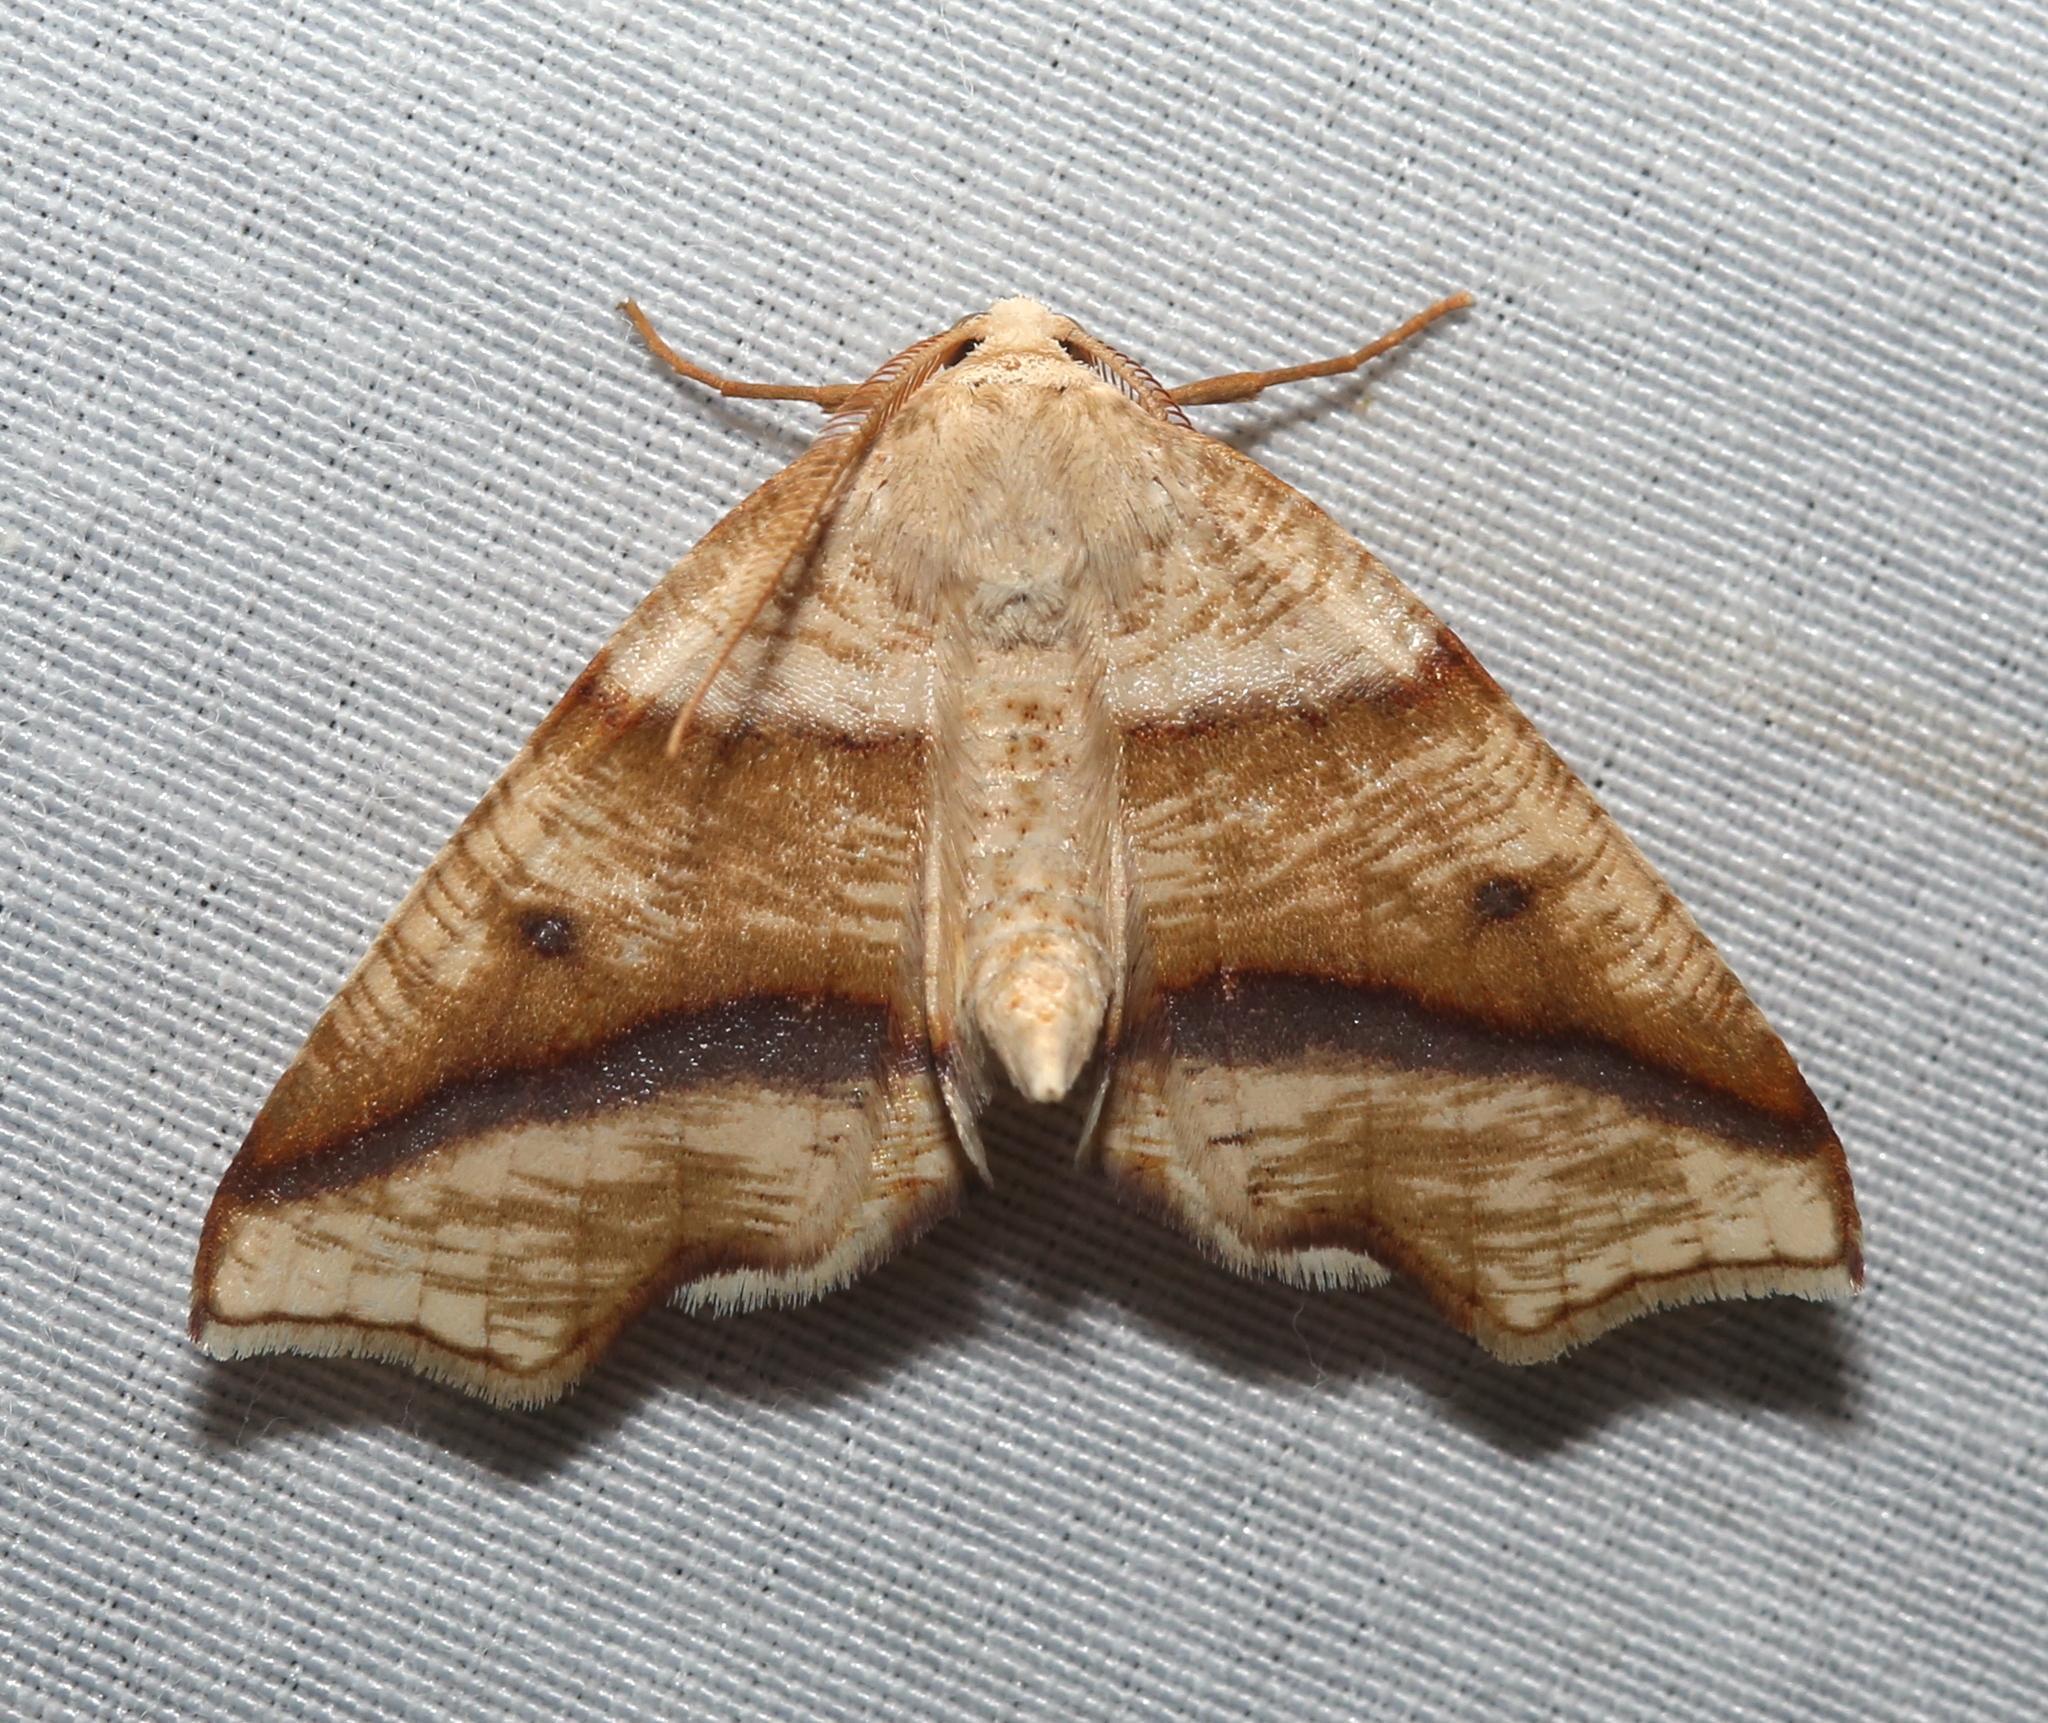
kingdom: Animalia
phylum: Arthropoda
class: Insecta
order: Lepidoptera
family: Geometridae
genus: Plagodis
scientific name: Plagodis alcoolaria
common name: Hollow-spotted plagodis
